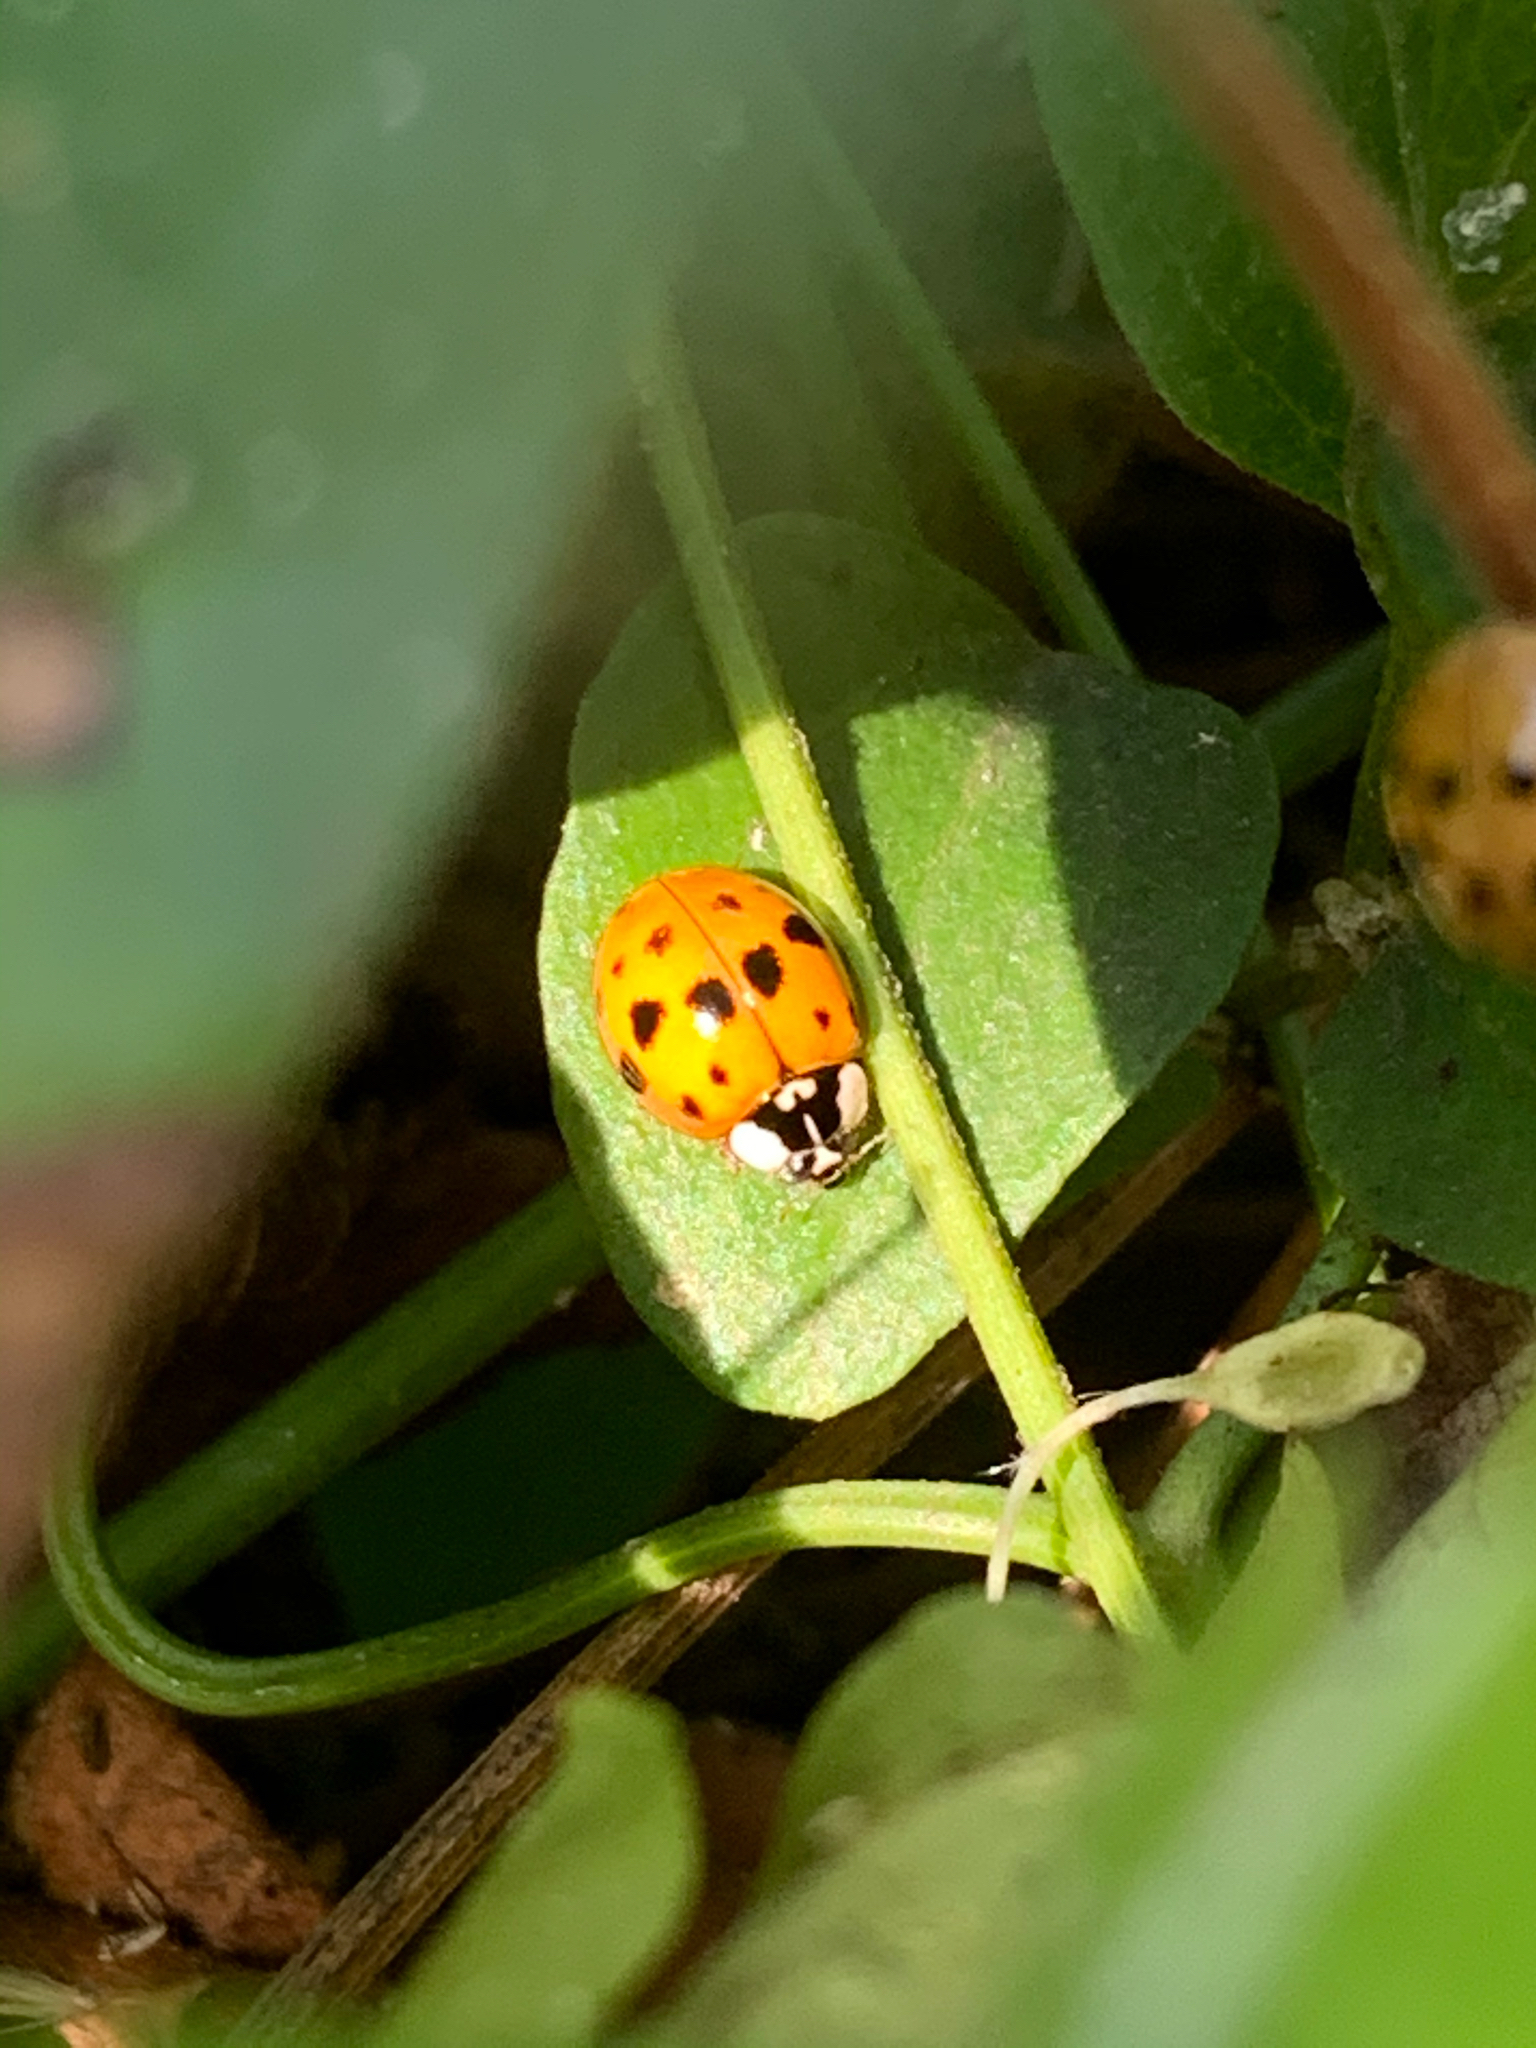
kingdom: Animalia
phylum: Arthropoda
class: Insecta
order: Coleoptera
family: Coccinellidae
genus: Harmonia
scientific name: Harmonia axyridis
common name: Harlequin ladybird
